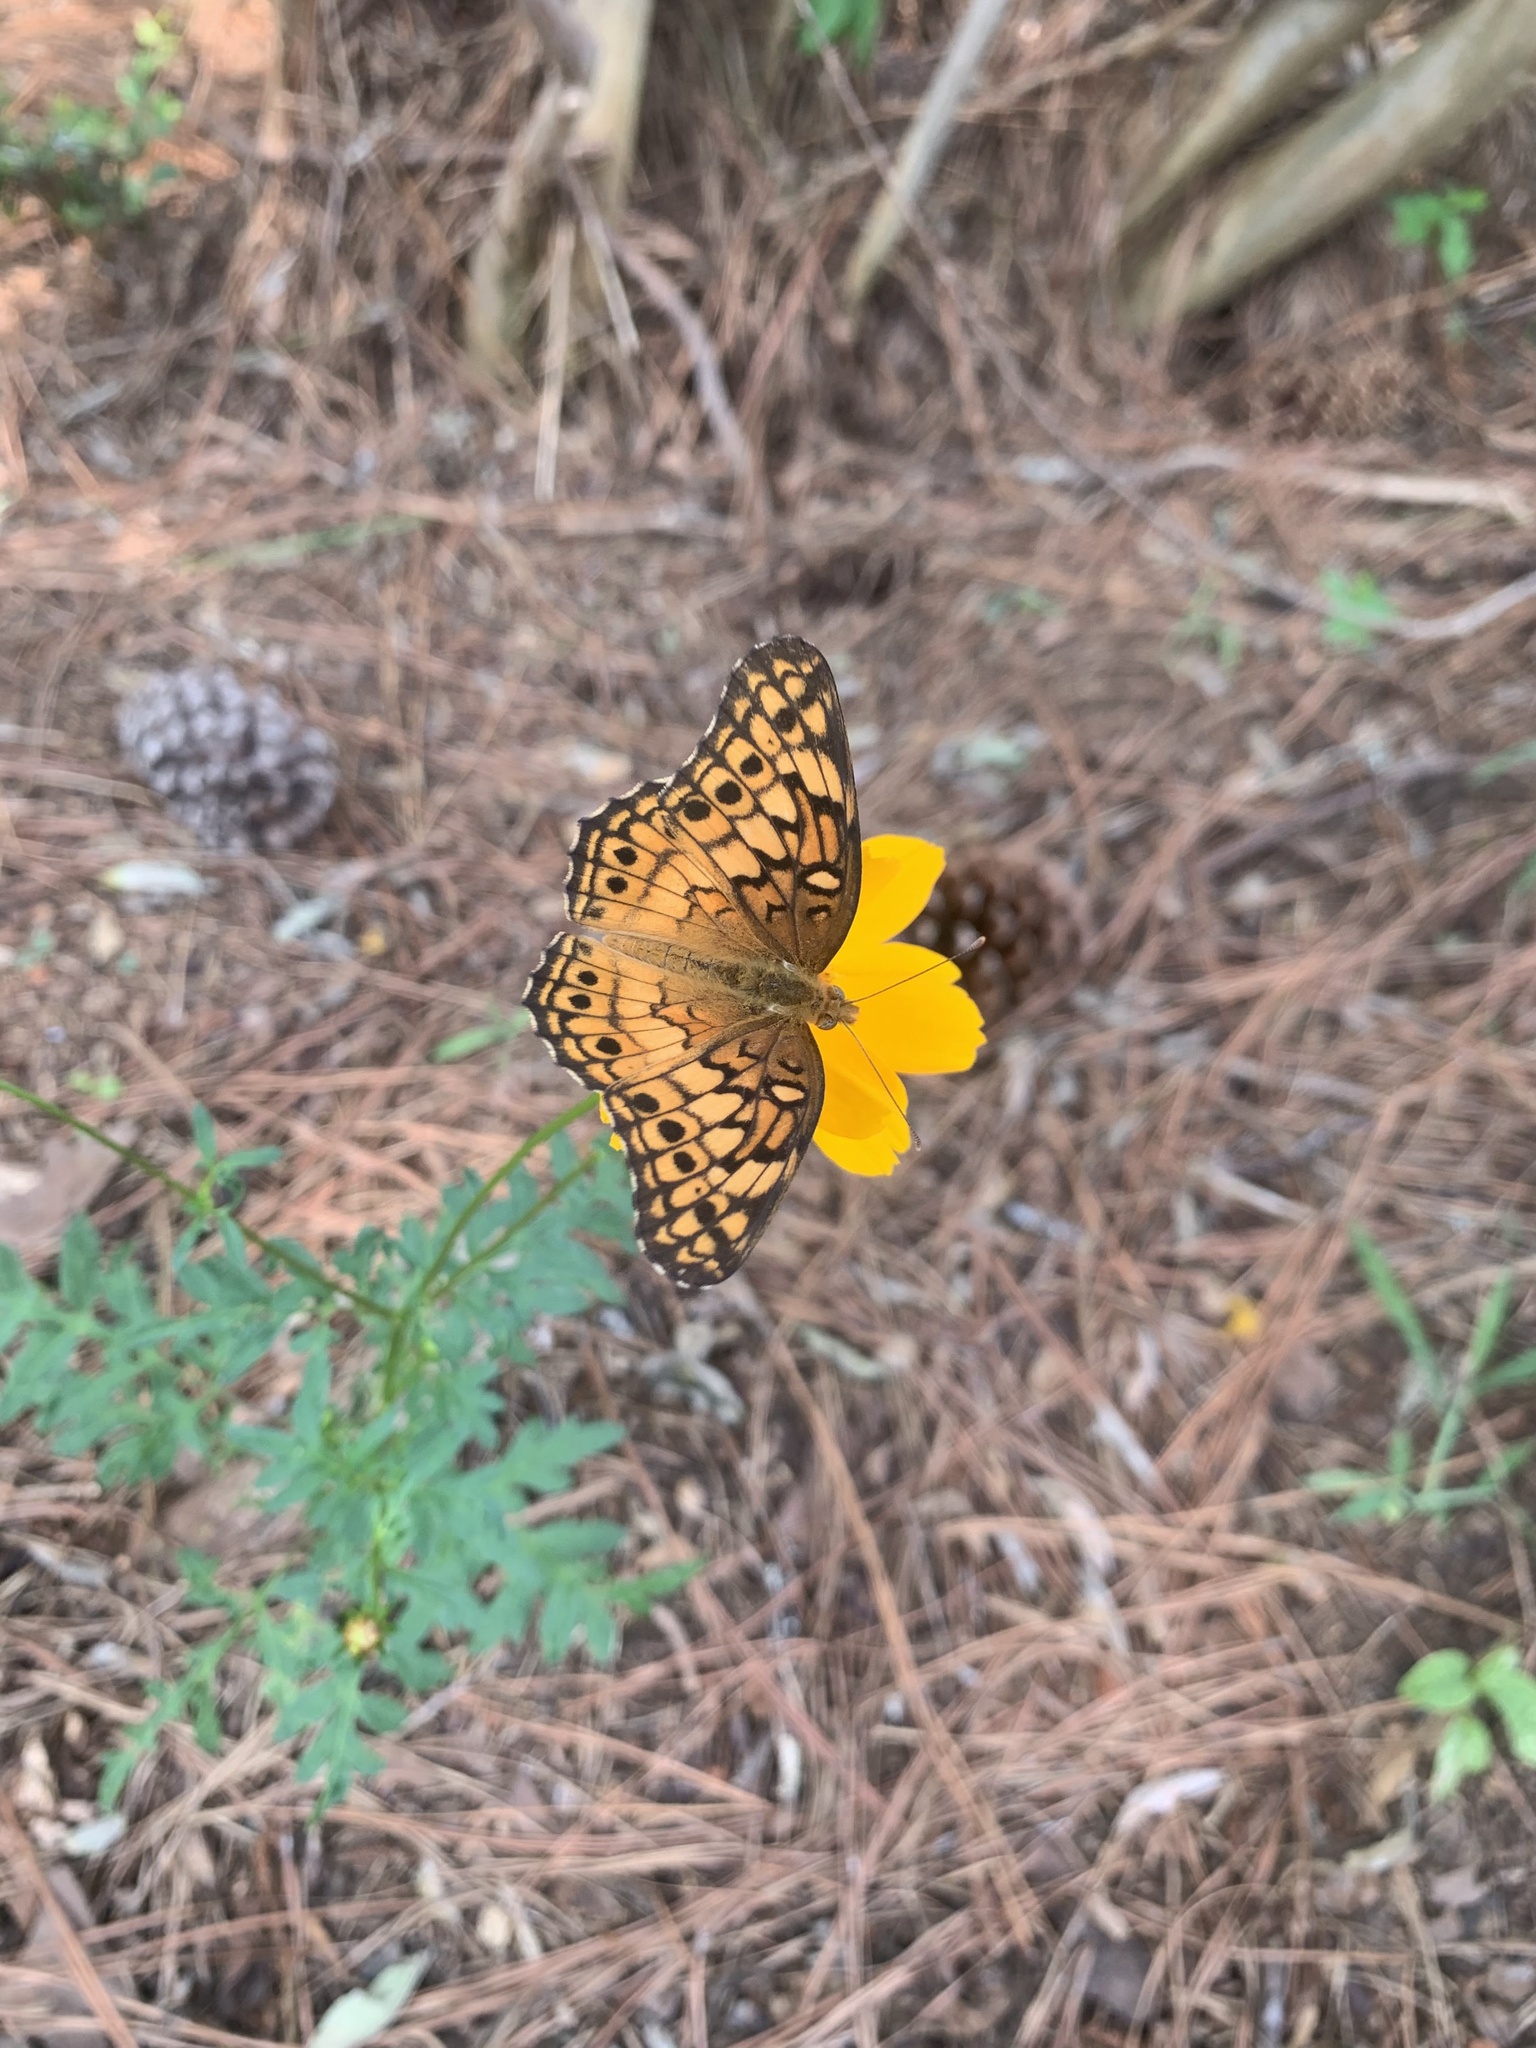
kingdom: Animalia
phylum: Arthropoda
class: Insecta
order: Lepidoptera
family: Nymphalidae
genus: Euptoieta
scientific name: Euptoieta claudia
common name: Variegated fritillary
